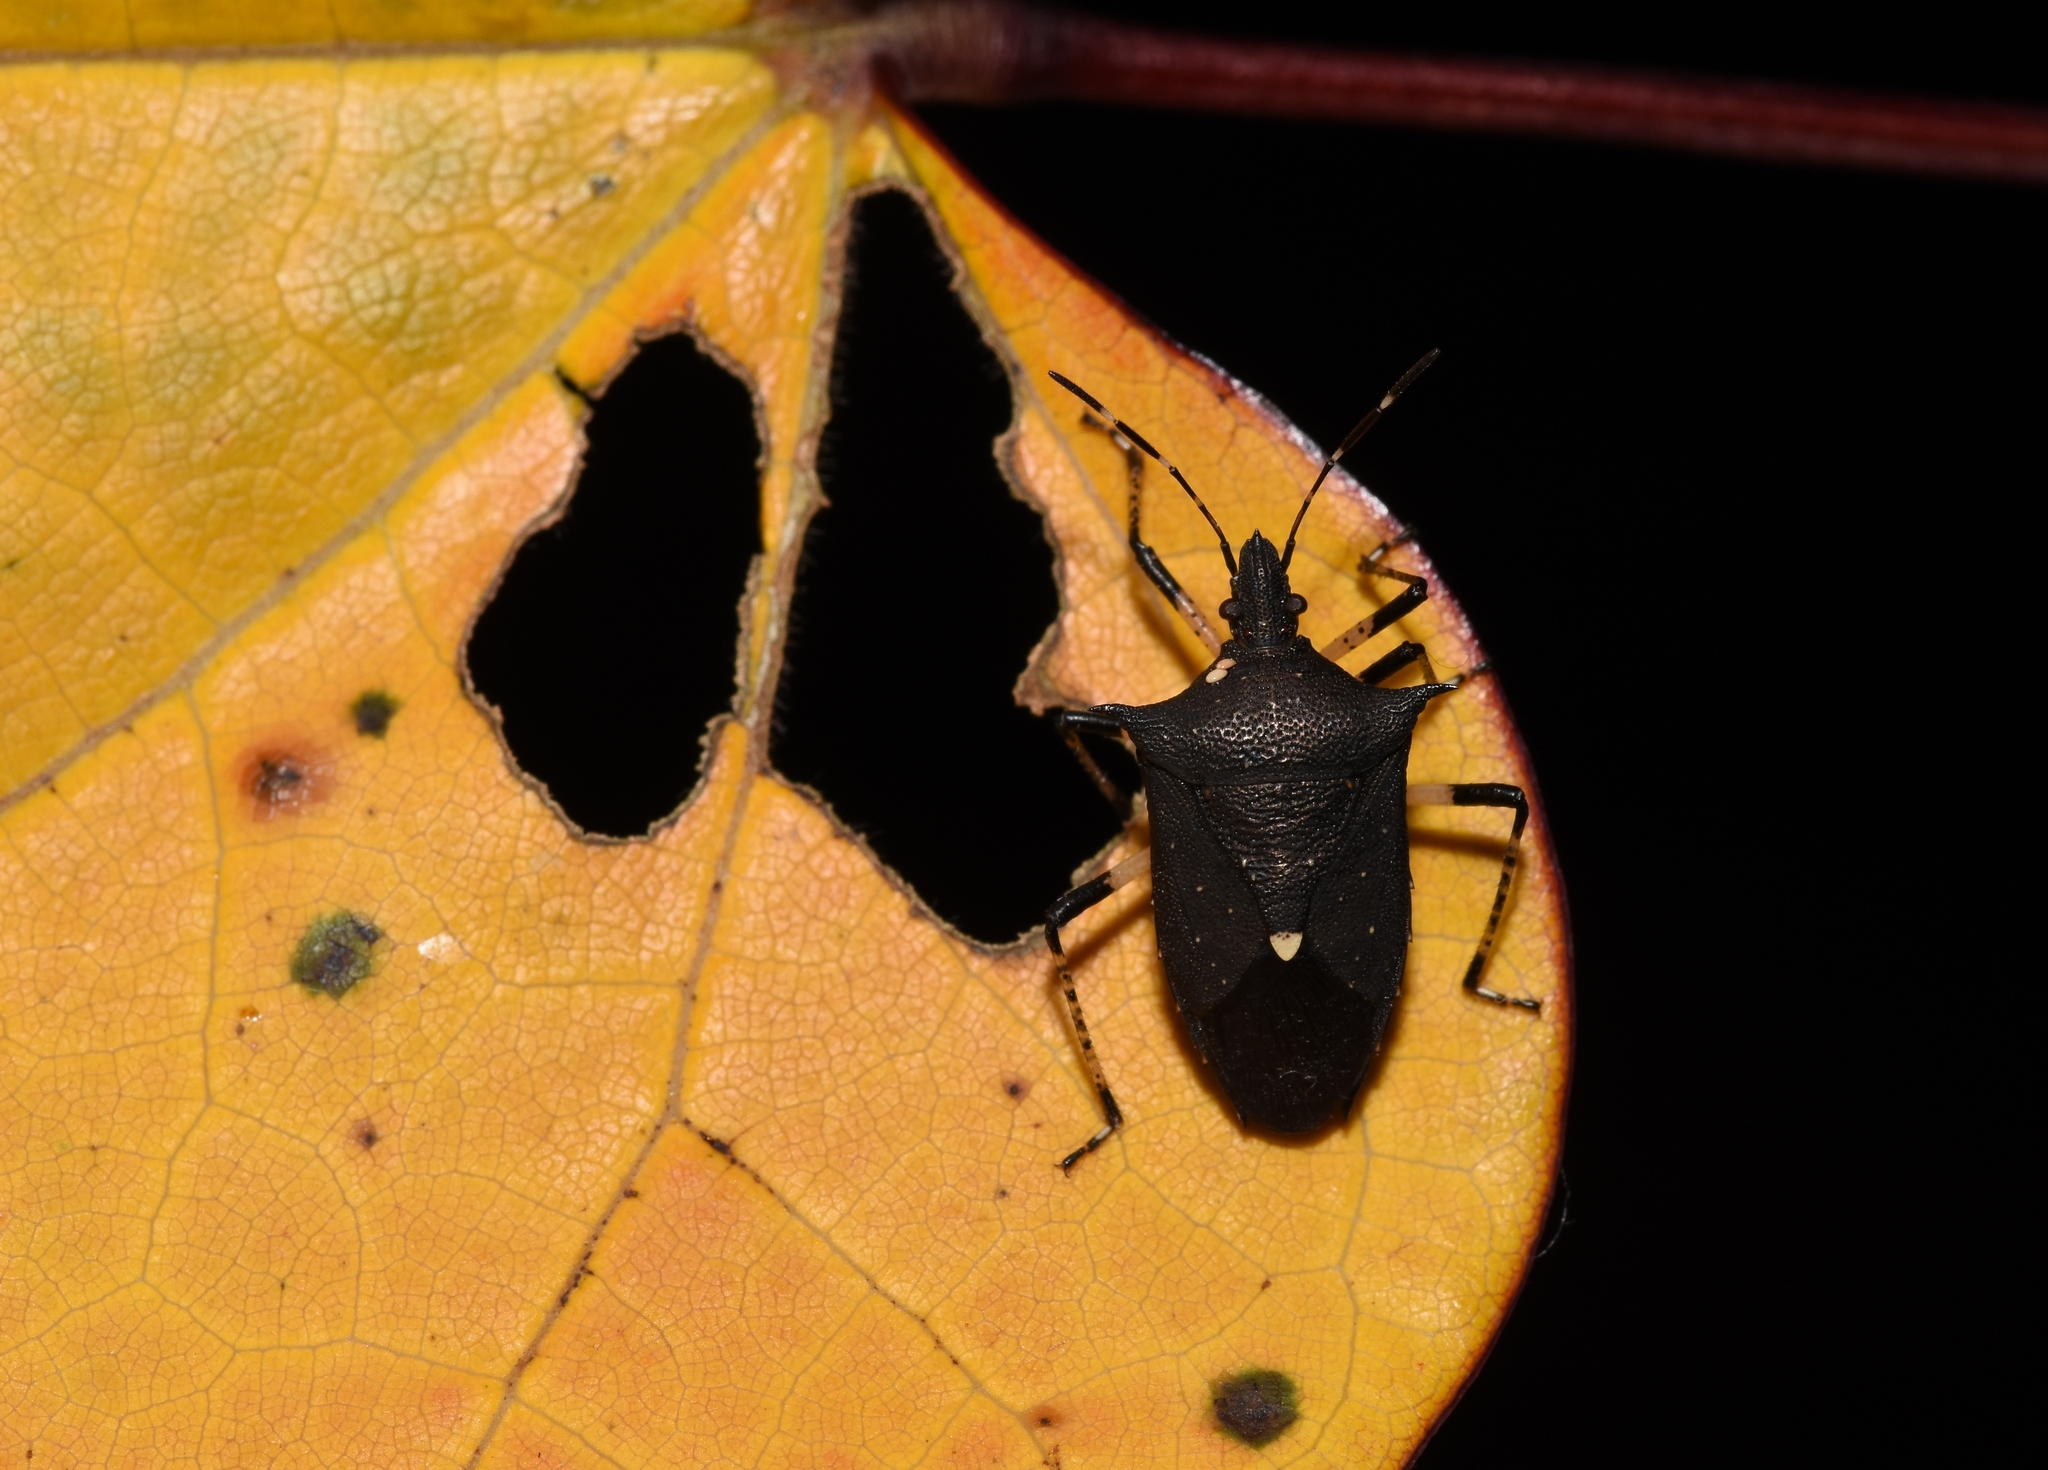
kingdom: Animalia
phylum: Arthropoda
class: Insecta
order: Hemiptera
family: Pentatomidae
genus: Proxys
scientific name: Proxys punctulatus
